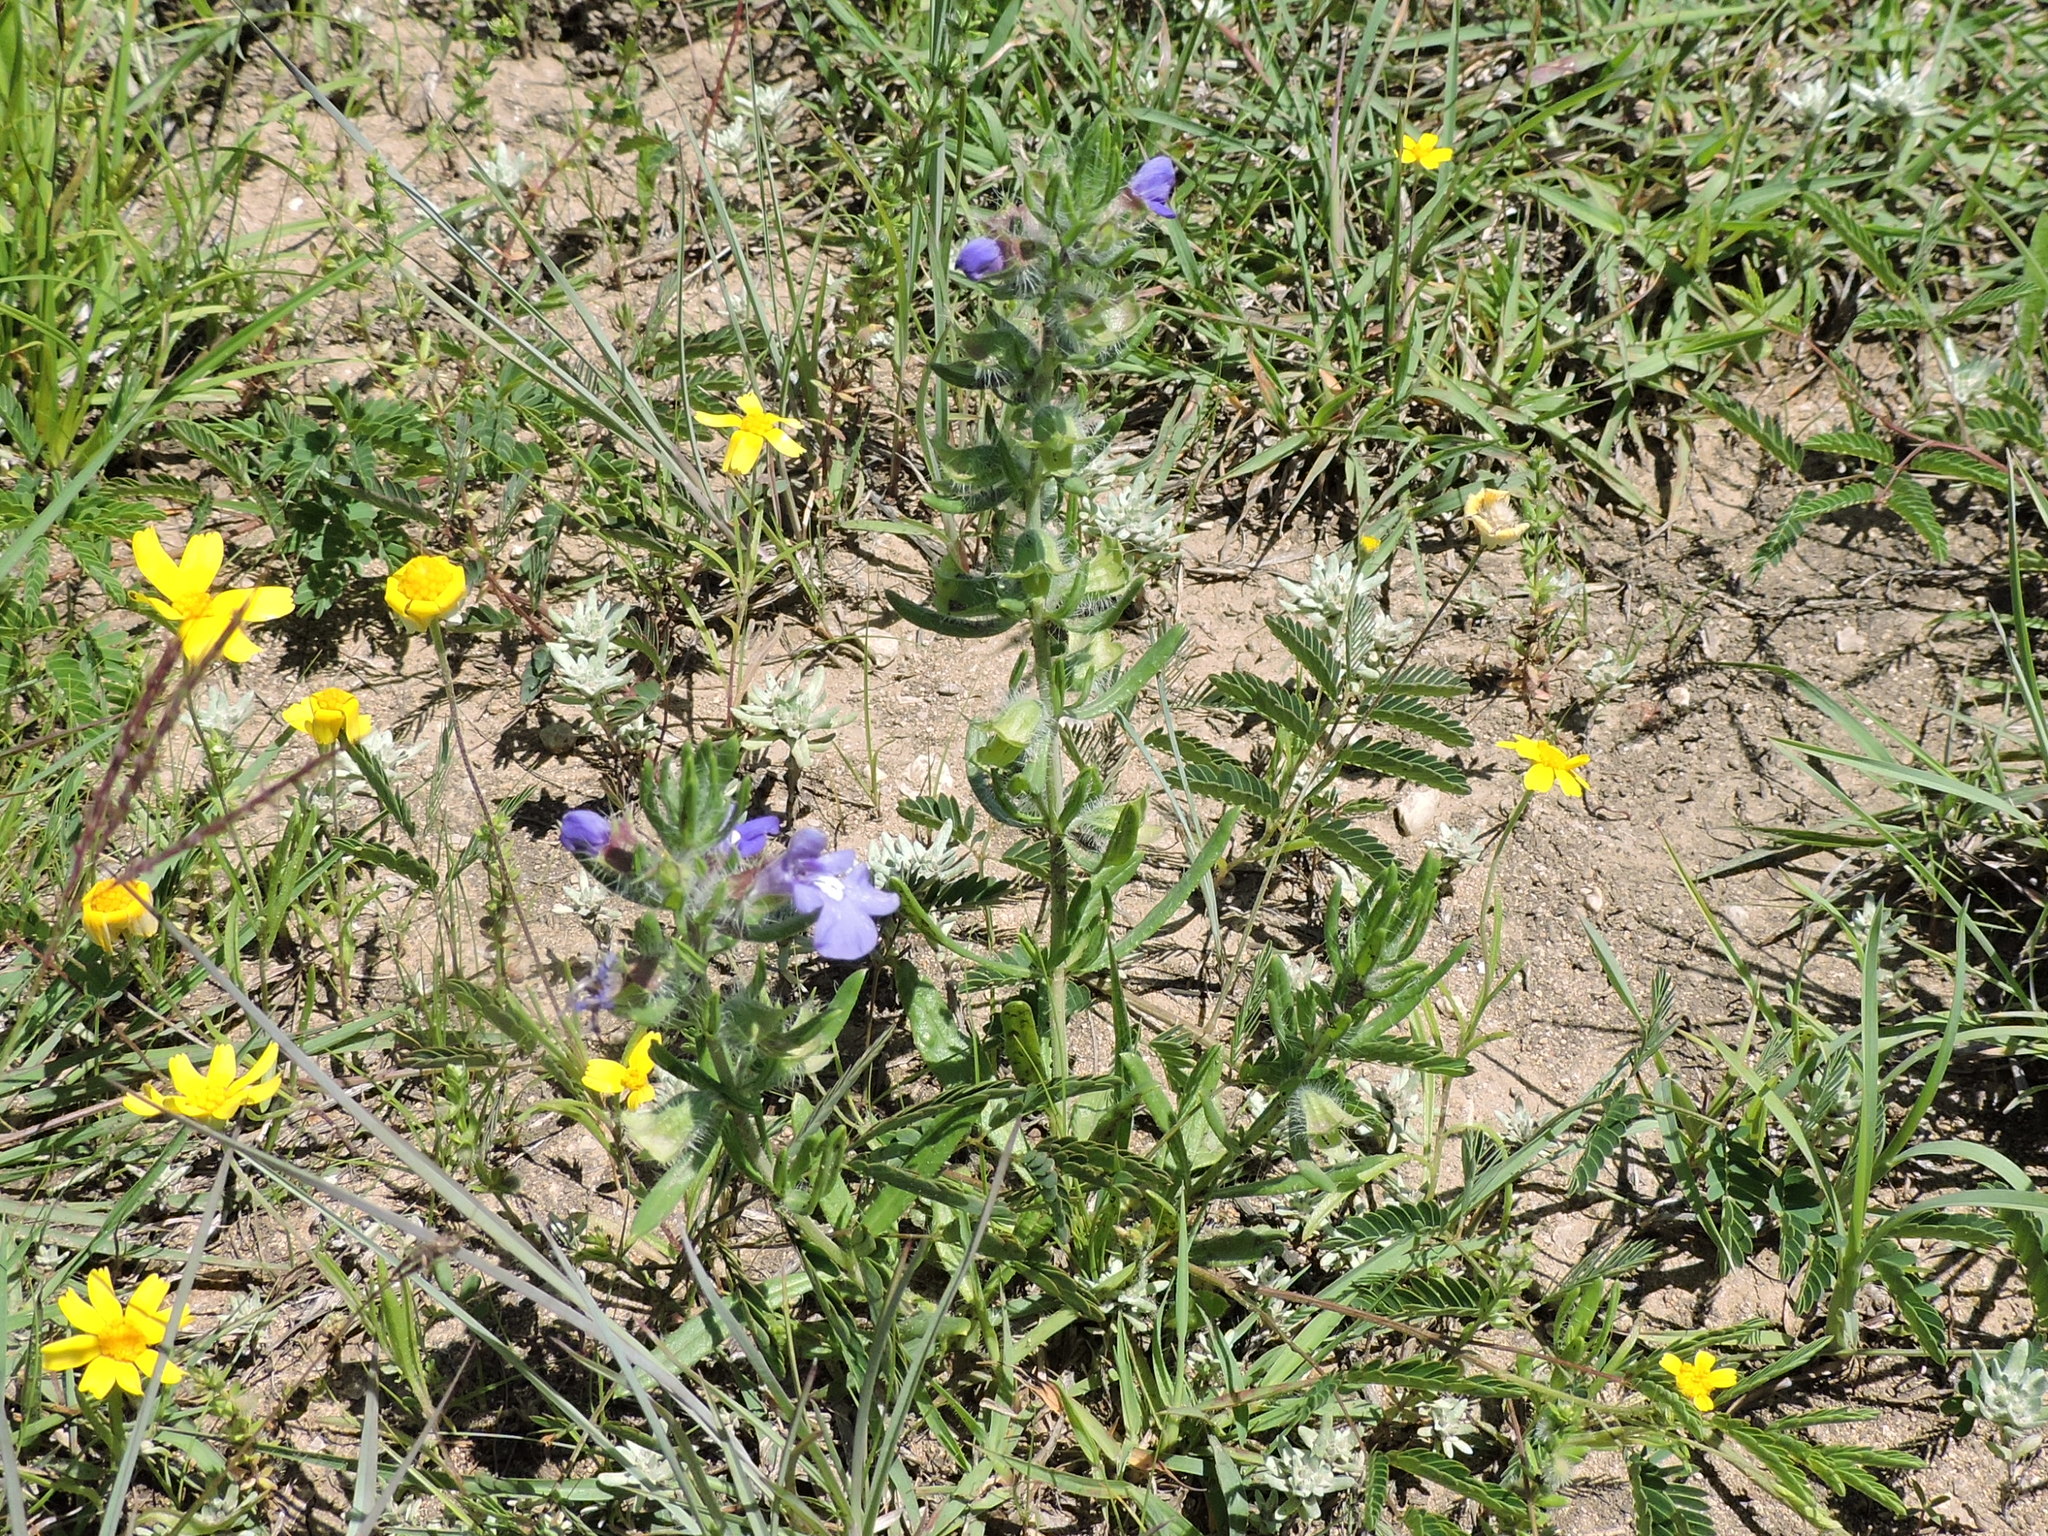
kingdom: Plantae
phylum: Tracheophyta
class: Magnoliopsida
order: Lamiales
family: Lamiaceae
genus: Salvia
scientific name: Salvia texana
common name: Texas sage
